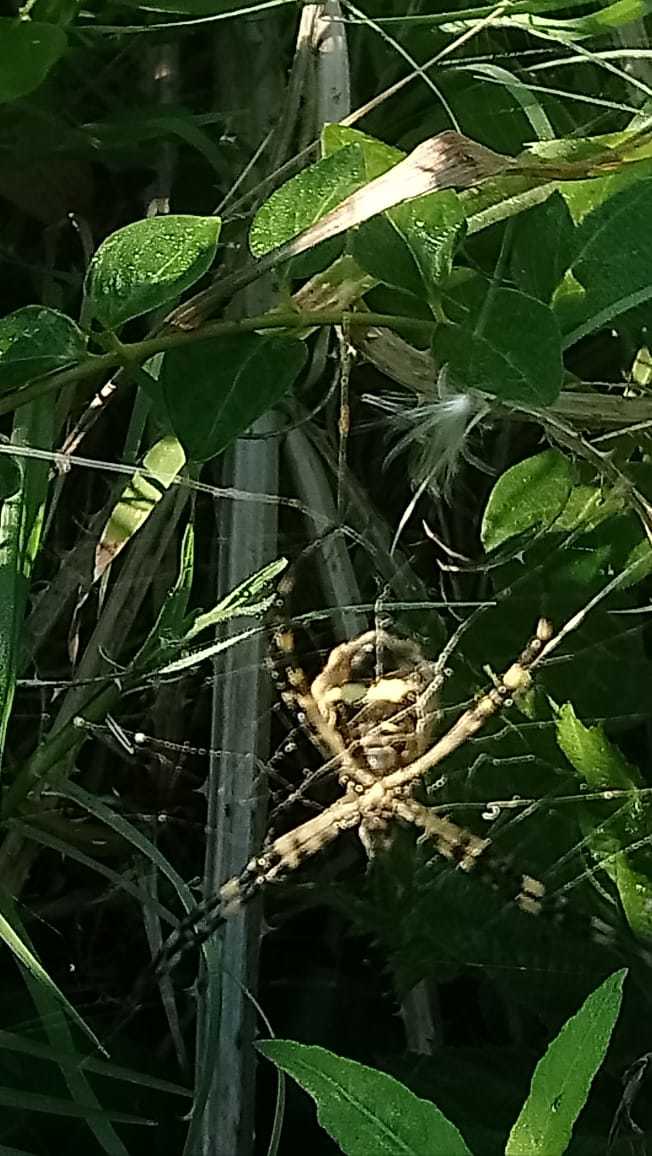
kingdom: Animalia
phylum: Arthropoda
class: Arachnida
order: Araneae
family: Araneidae
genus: Argiope
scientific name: Argiope argentata
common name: Orb weavers
